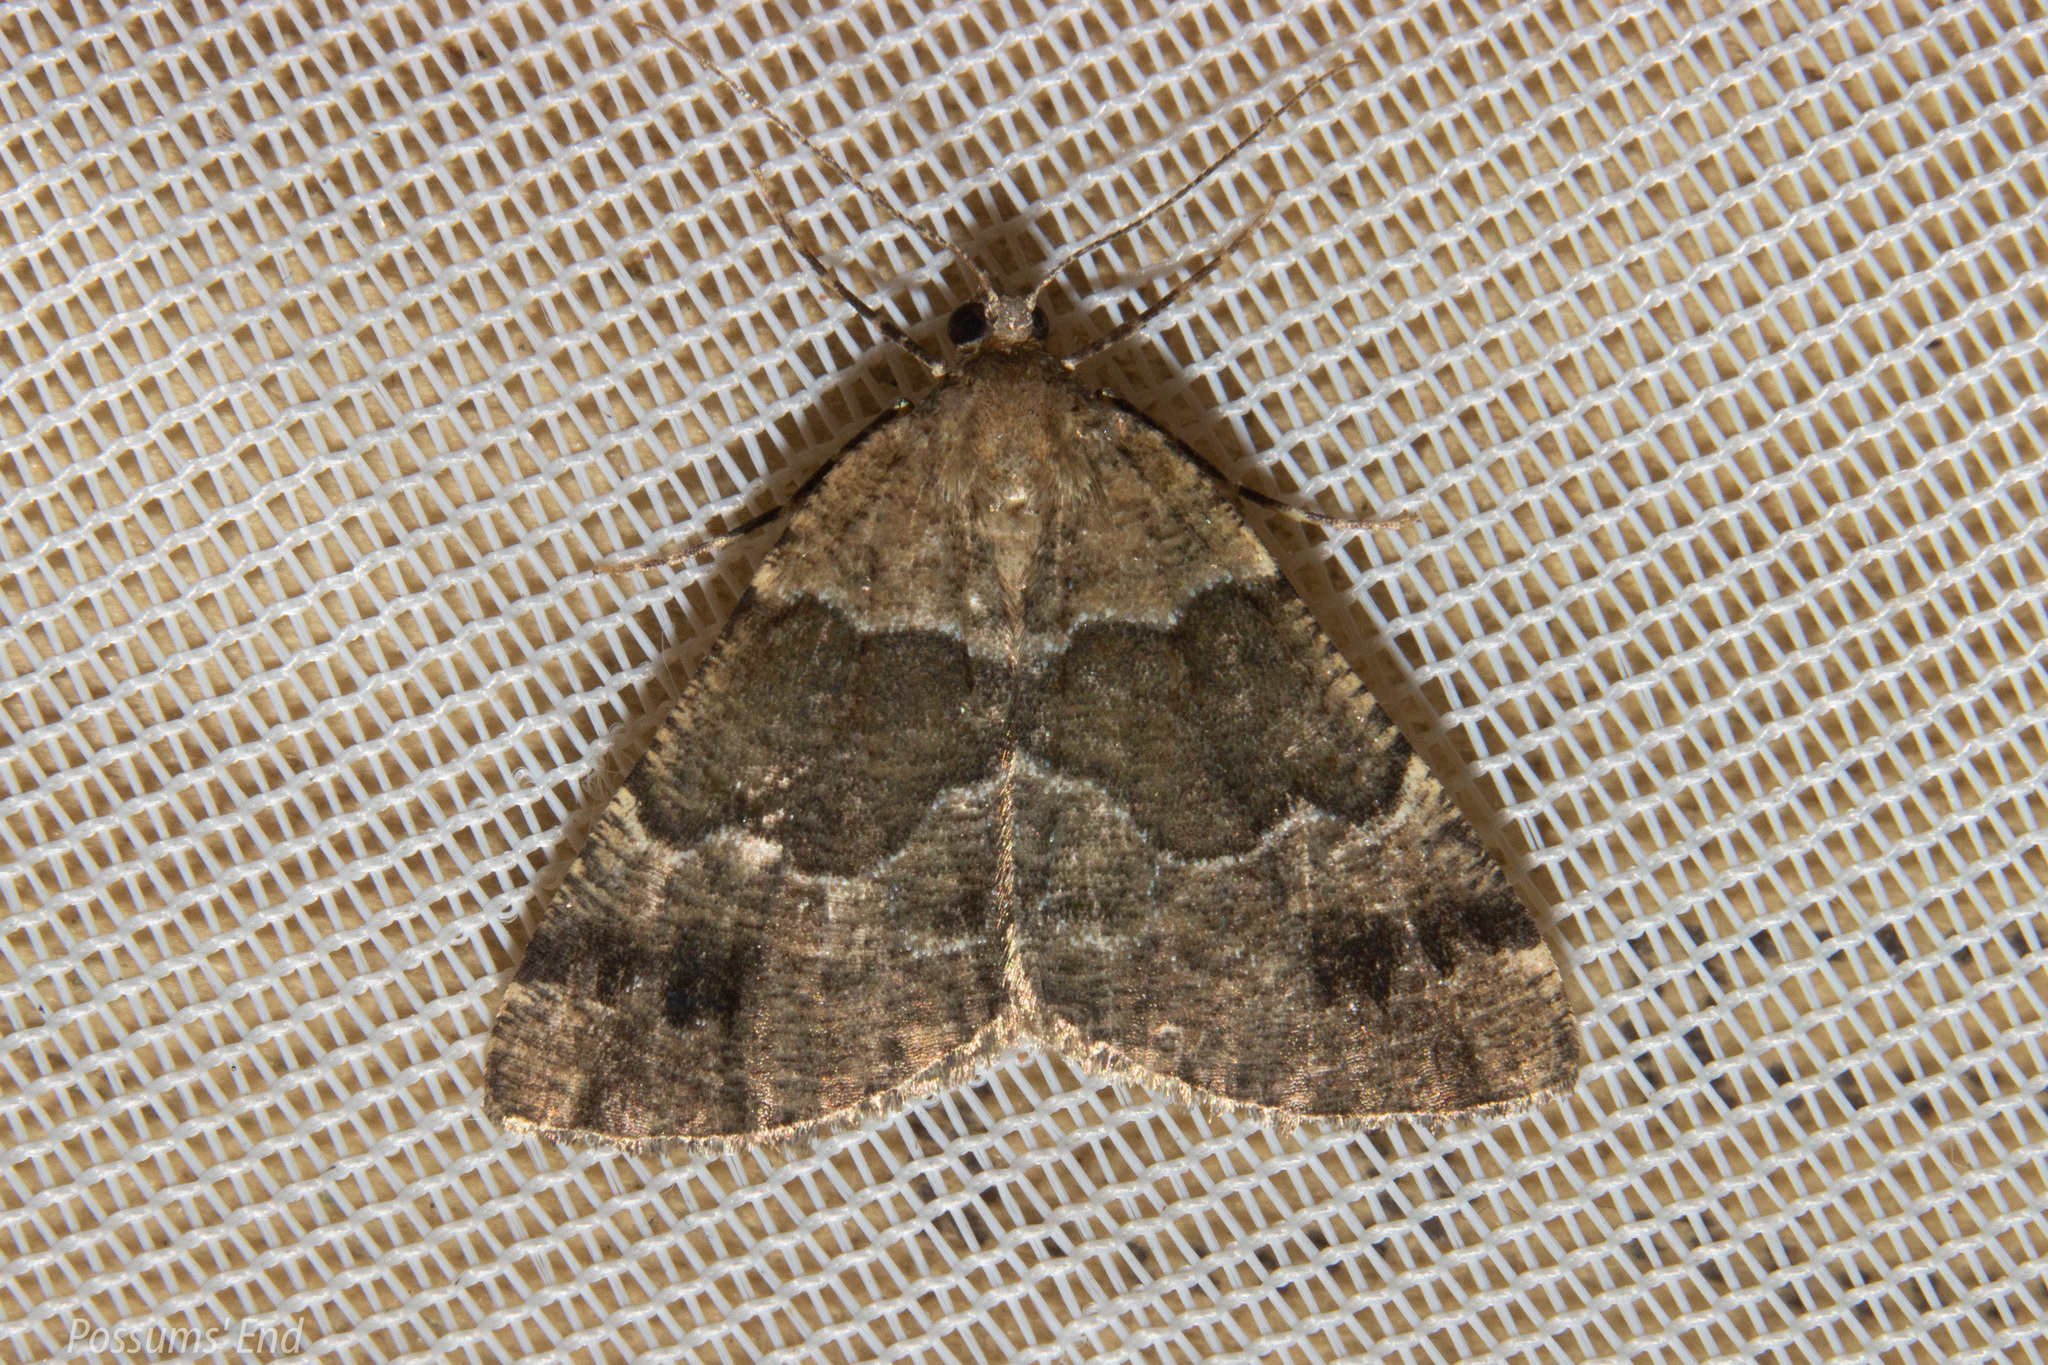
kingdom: Animalia
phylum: Arthropoda
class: Insecta
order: Lepidoptera
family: Geometridae
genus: Pseudocoremia
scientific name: Pseudocoremia
